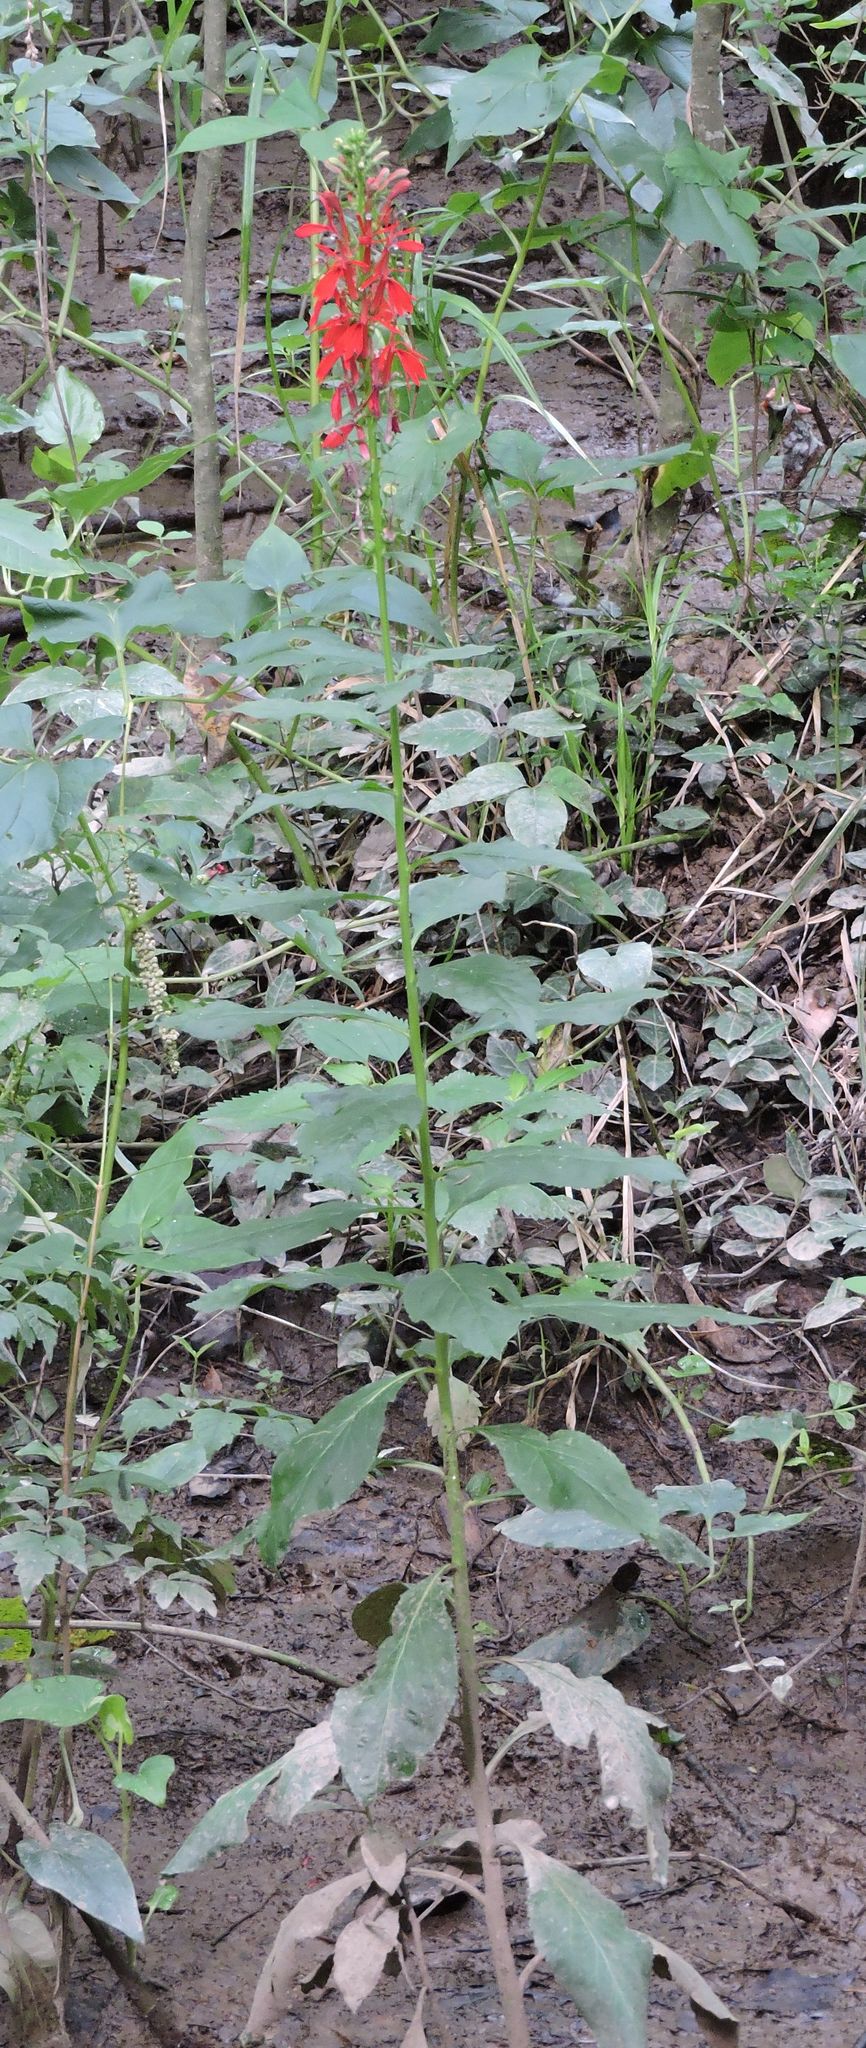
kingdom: Plantae
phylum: Tracheophyta
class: Magnoliopsida
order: Asterales
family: Campanulaceae
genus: Lobelia
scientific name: Lobelia cardinalis
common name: Cardinal flower
